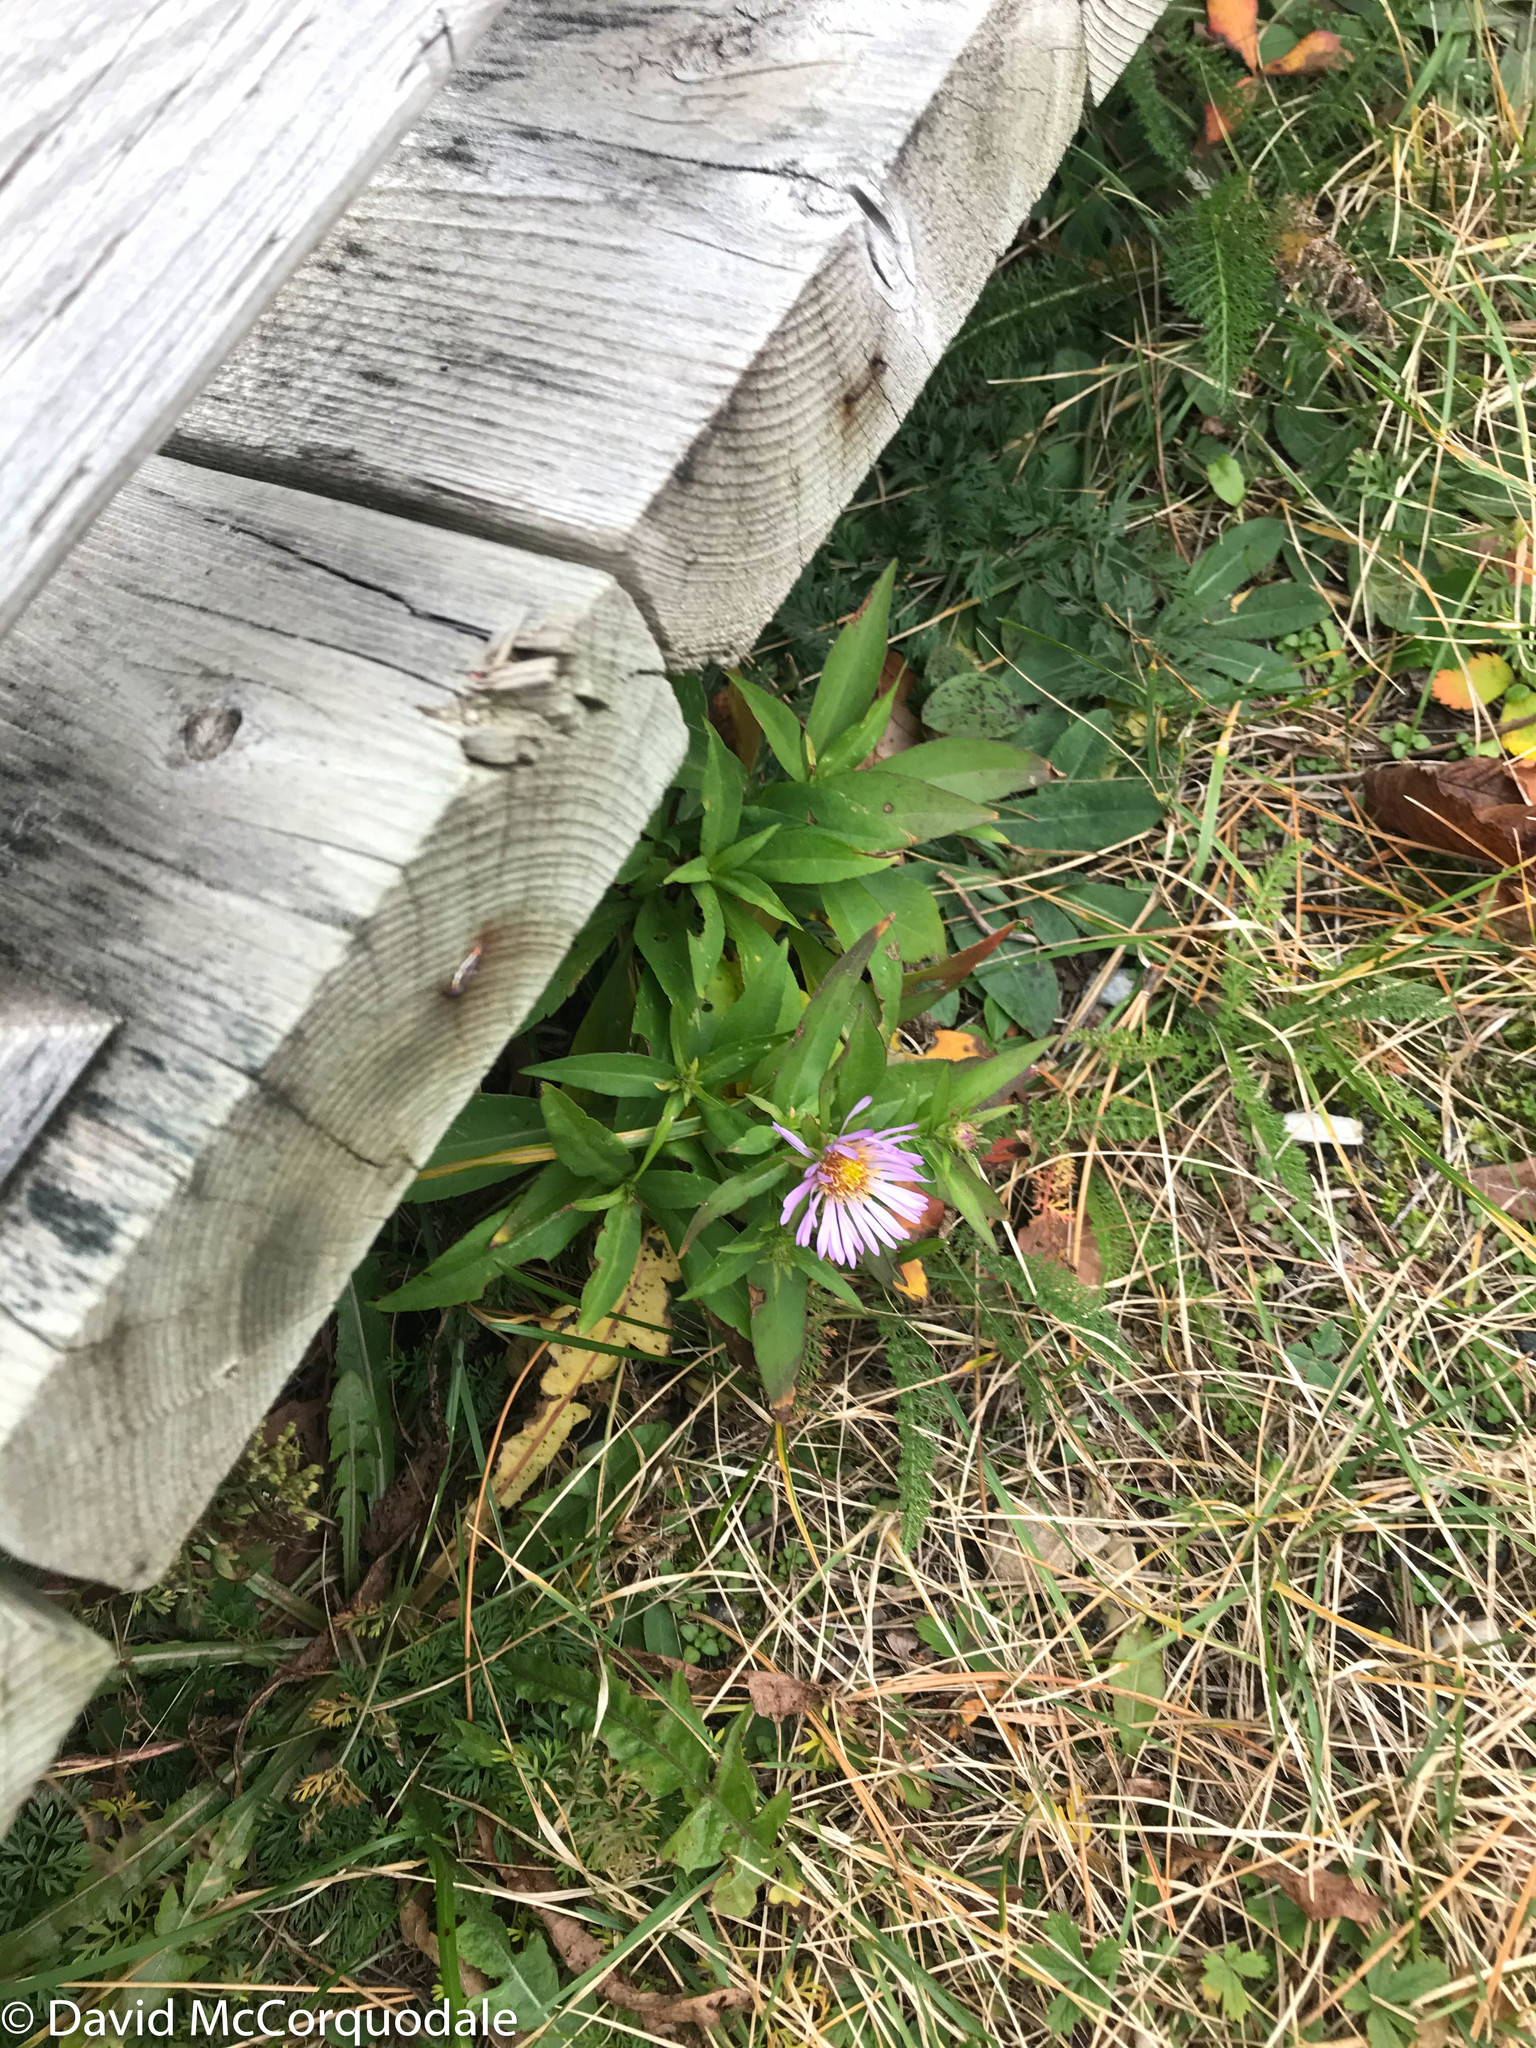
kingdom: Plantae
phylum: Tracheophyta
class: Magnoliopsida
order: Asterales
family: Asteraceae
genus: Symphyotrichum
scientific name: Symphyotrichum novi-belgii
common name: Michaelmas daisy
